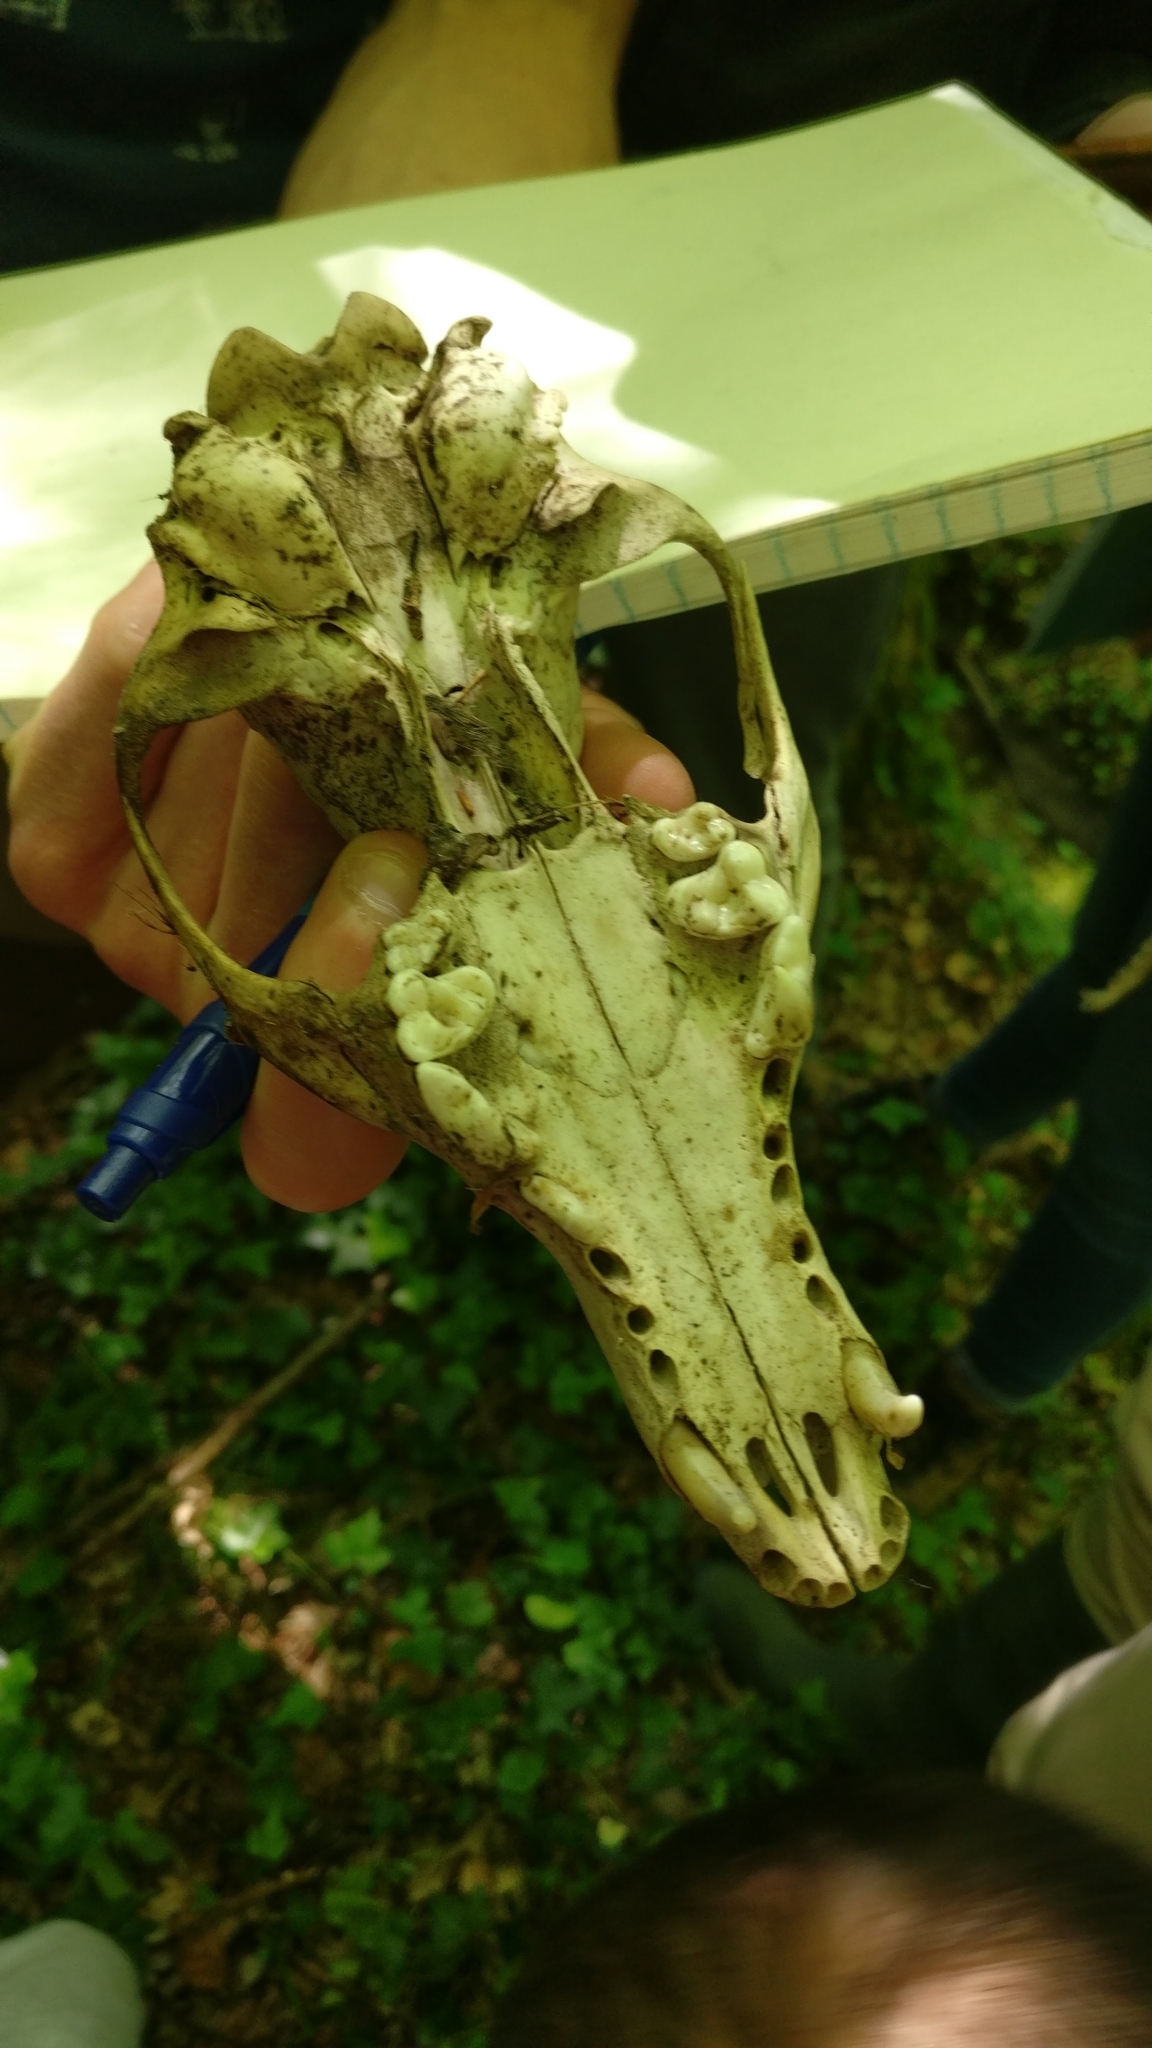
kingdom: Animalia
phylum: Chordata
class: Mammalia
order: Carnivora
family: Canidae
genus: Vulpes
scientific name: Vulpes vulpes
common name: Red fox
